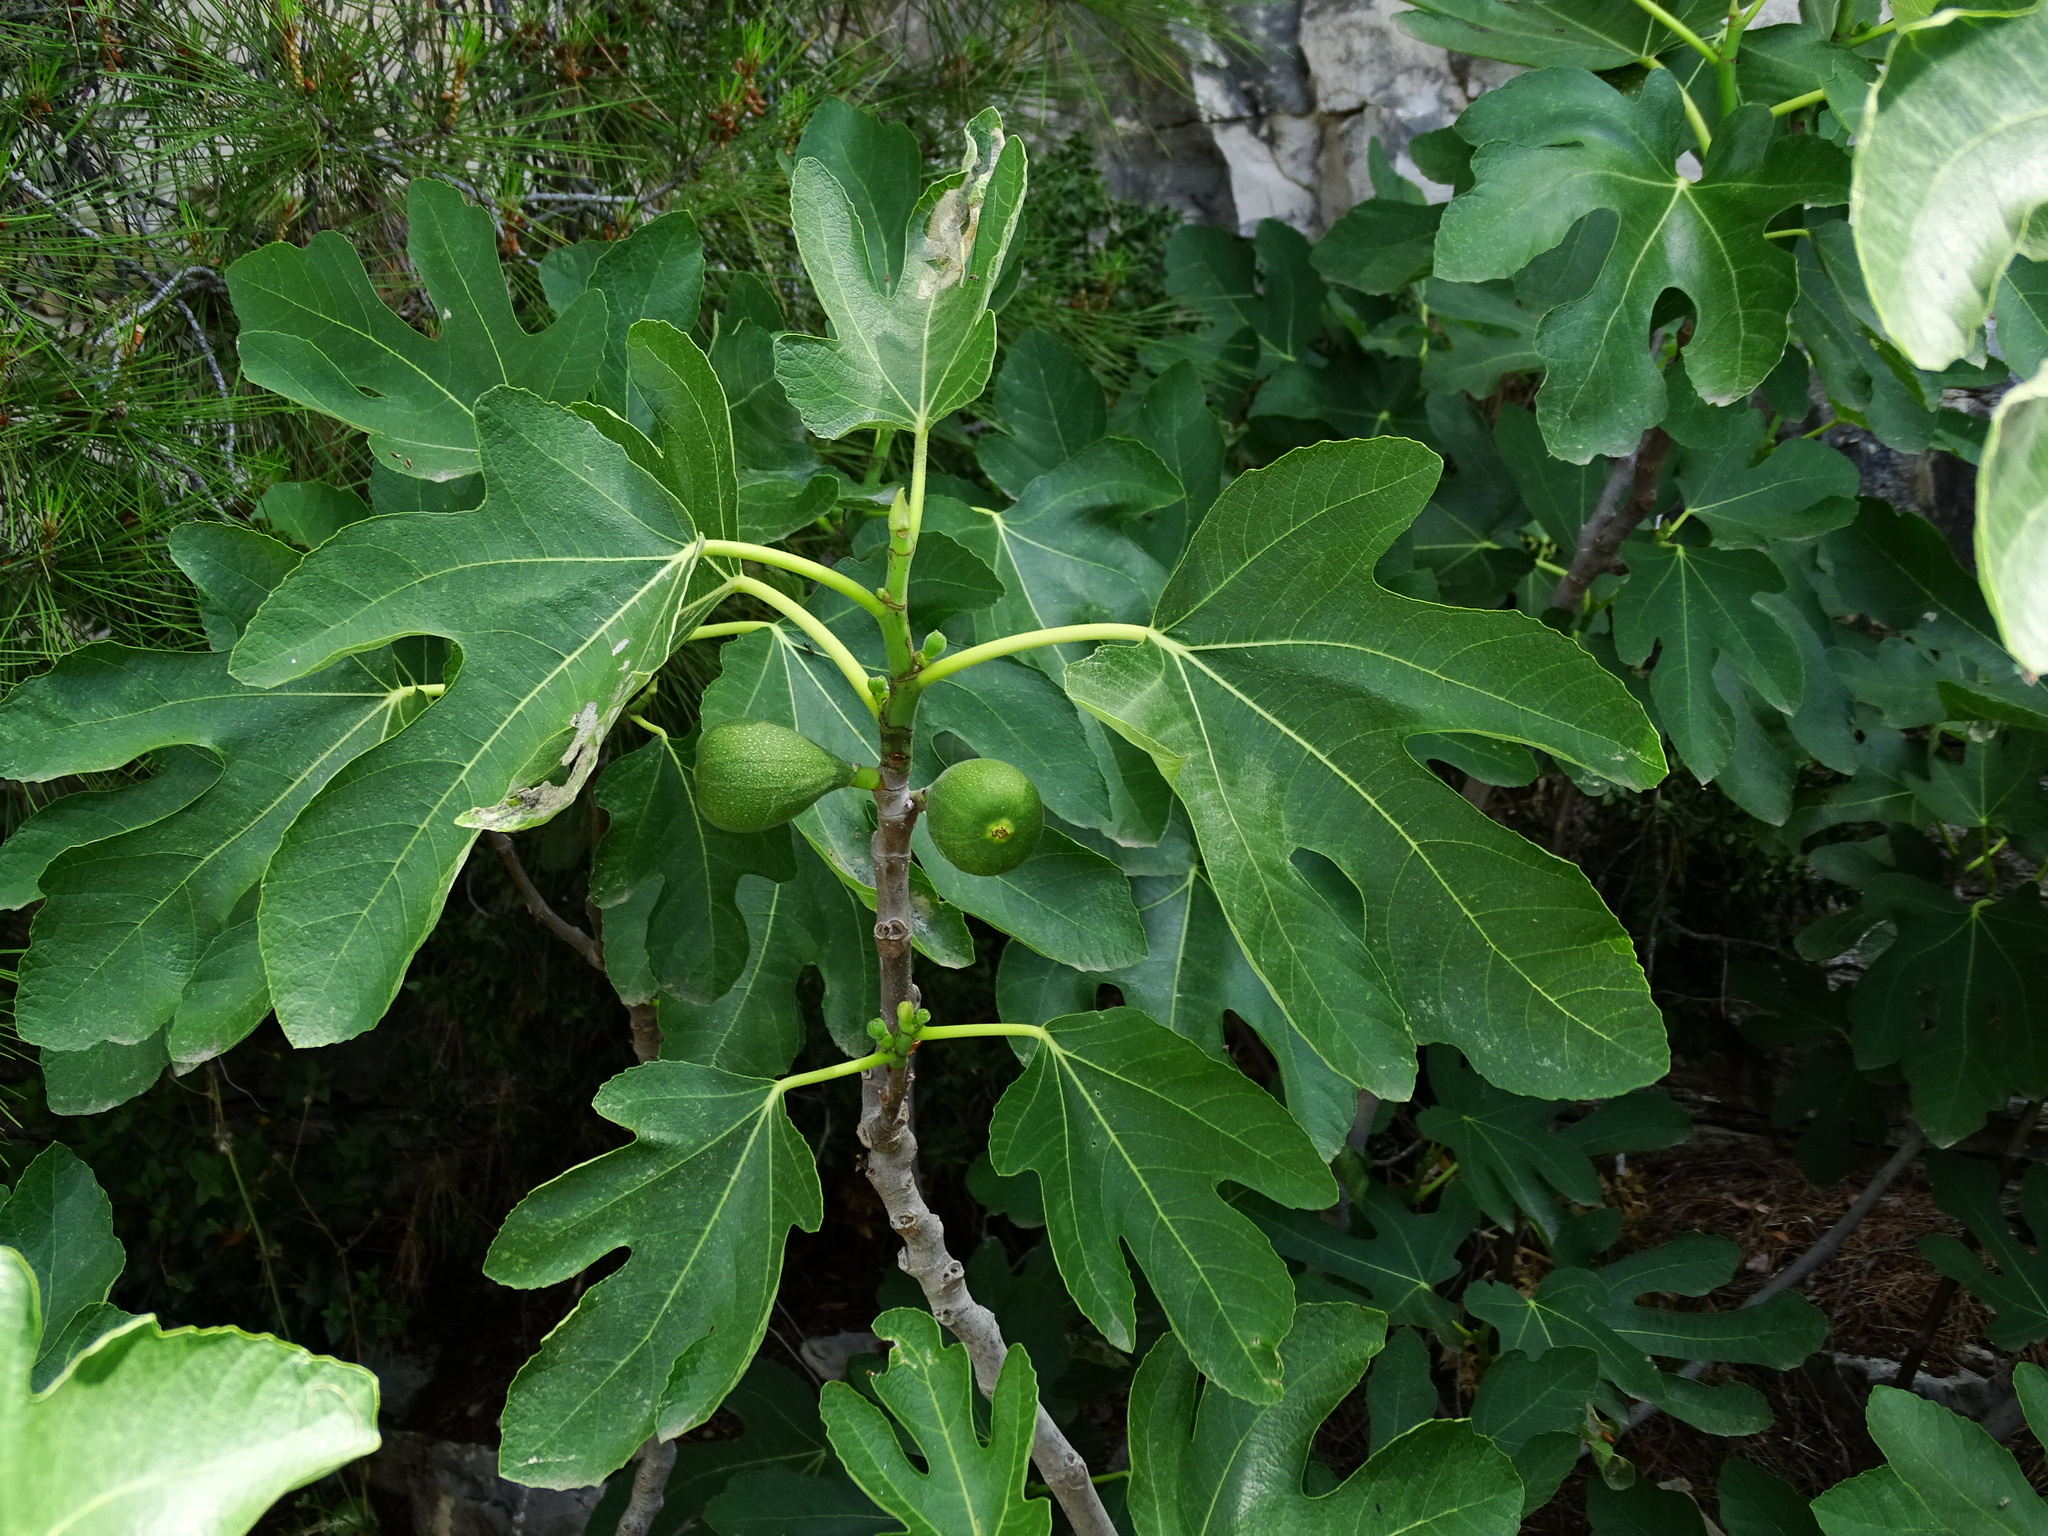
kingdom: Plantae
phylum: Tracheophyta
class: Magnoliopsida
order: Rosales
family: Moraceae
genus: Ficus
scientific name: Ficus carica
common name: Fig
